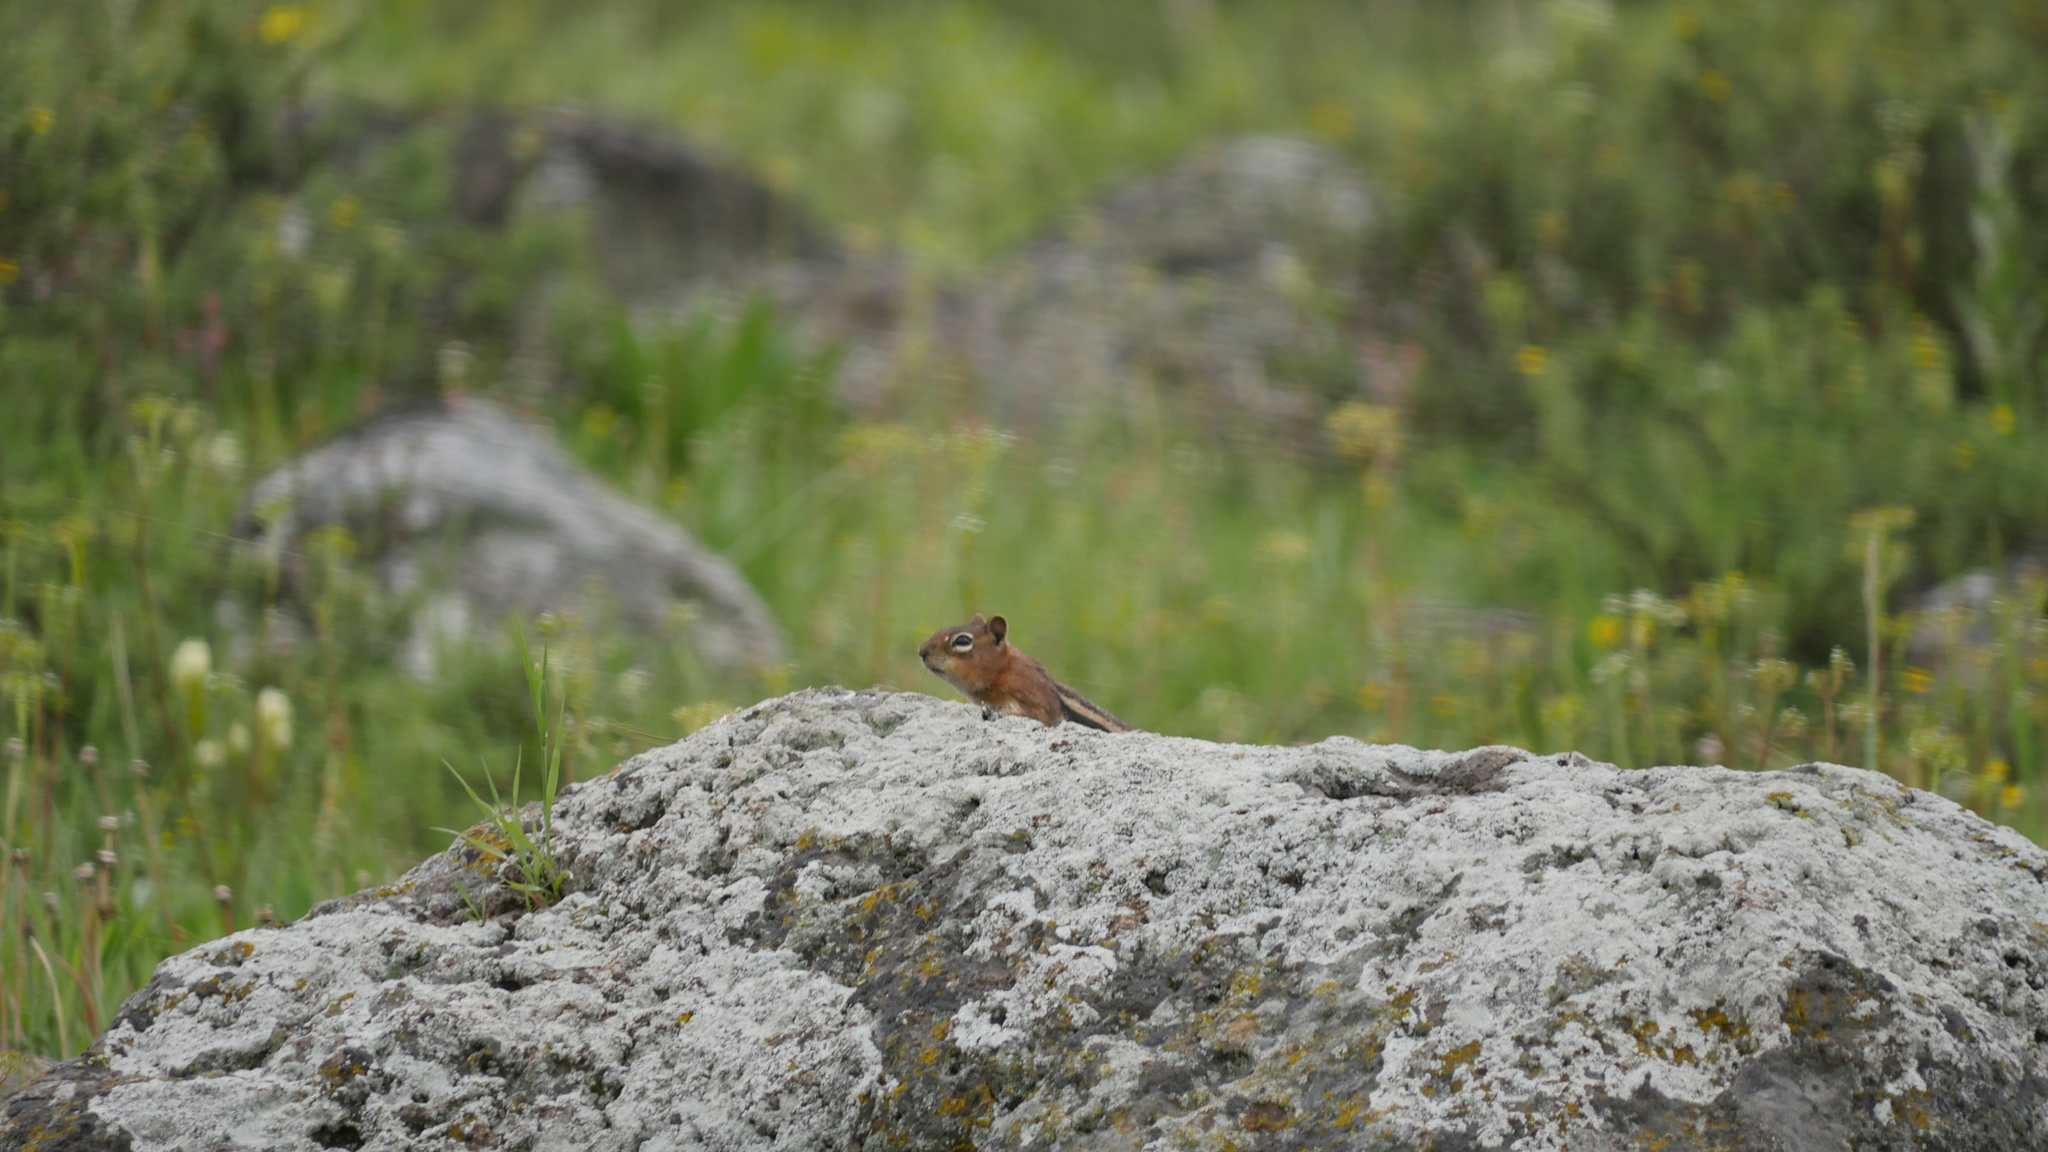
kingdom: Animalia
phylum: Chordata
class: Mammalia
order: Rodentia
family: Sciuridae
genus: Callospermophilus
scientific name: Callospermophilus lateralis
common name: Golden-mantled ground squirrel
